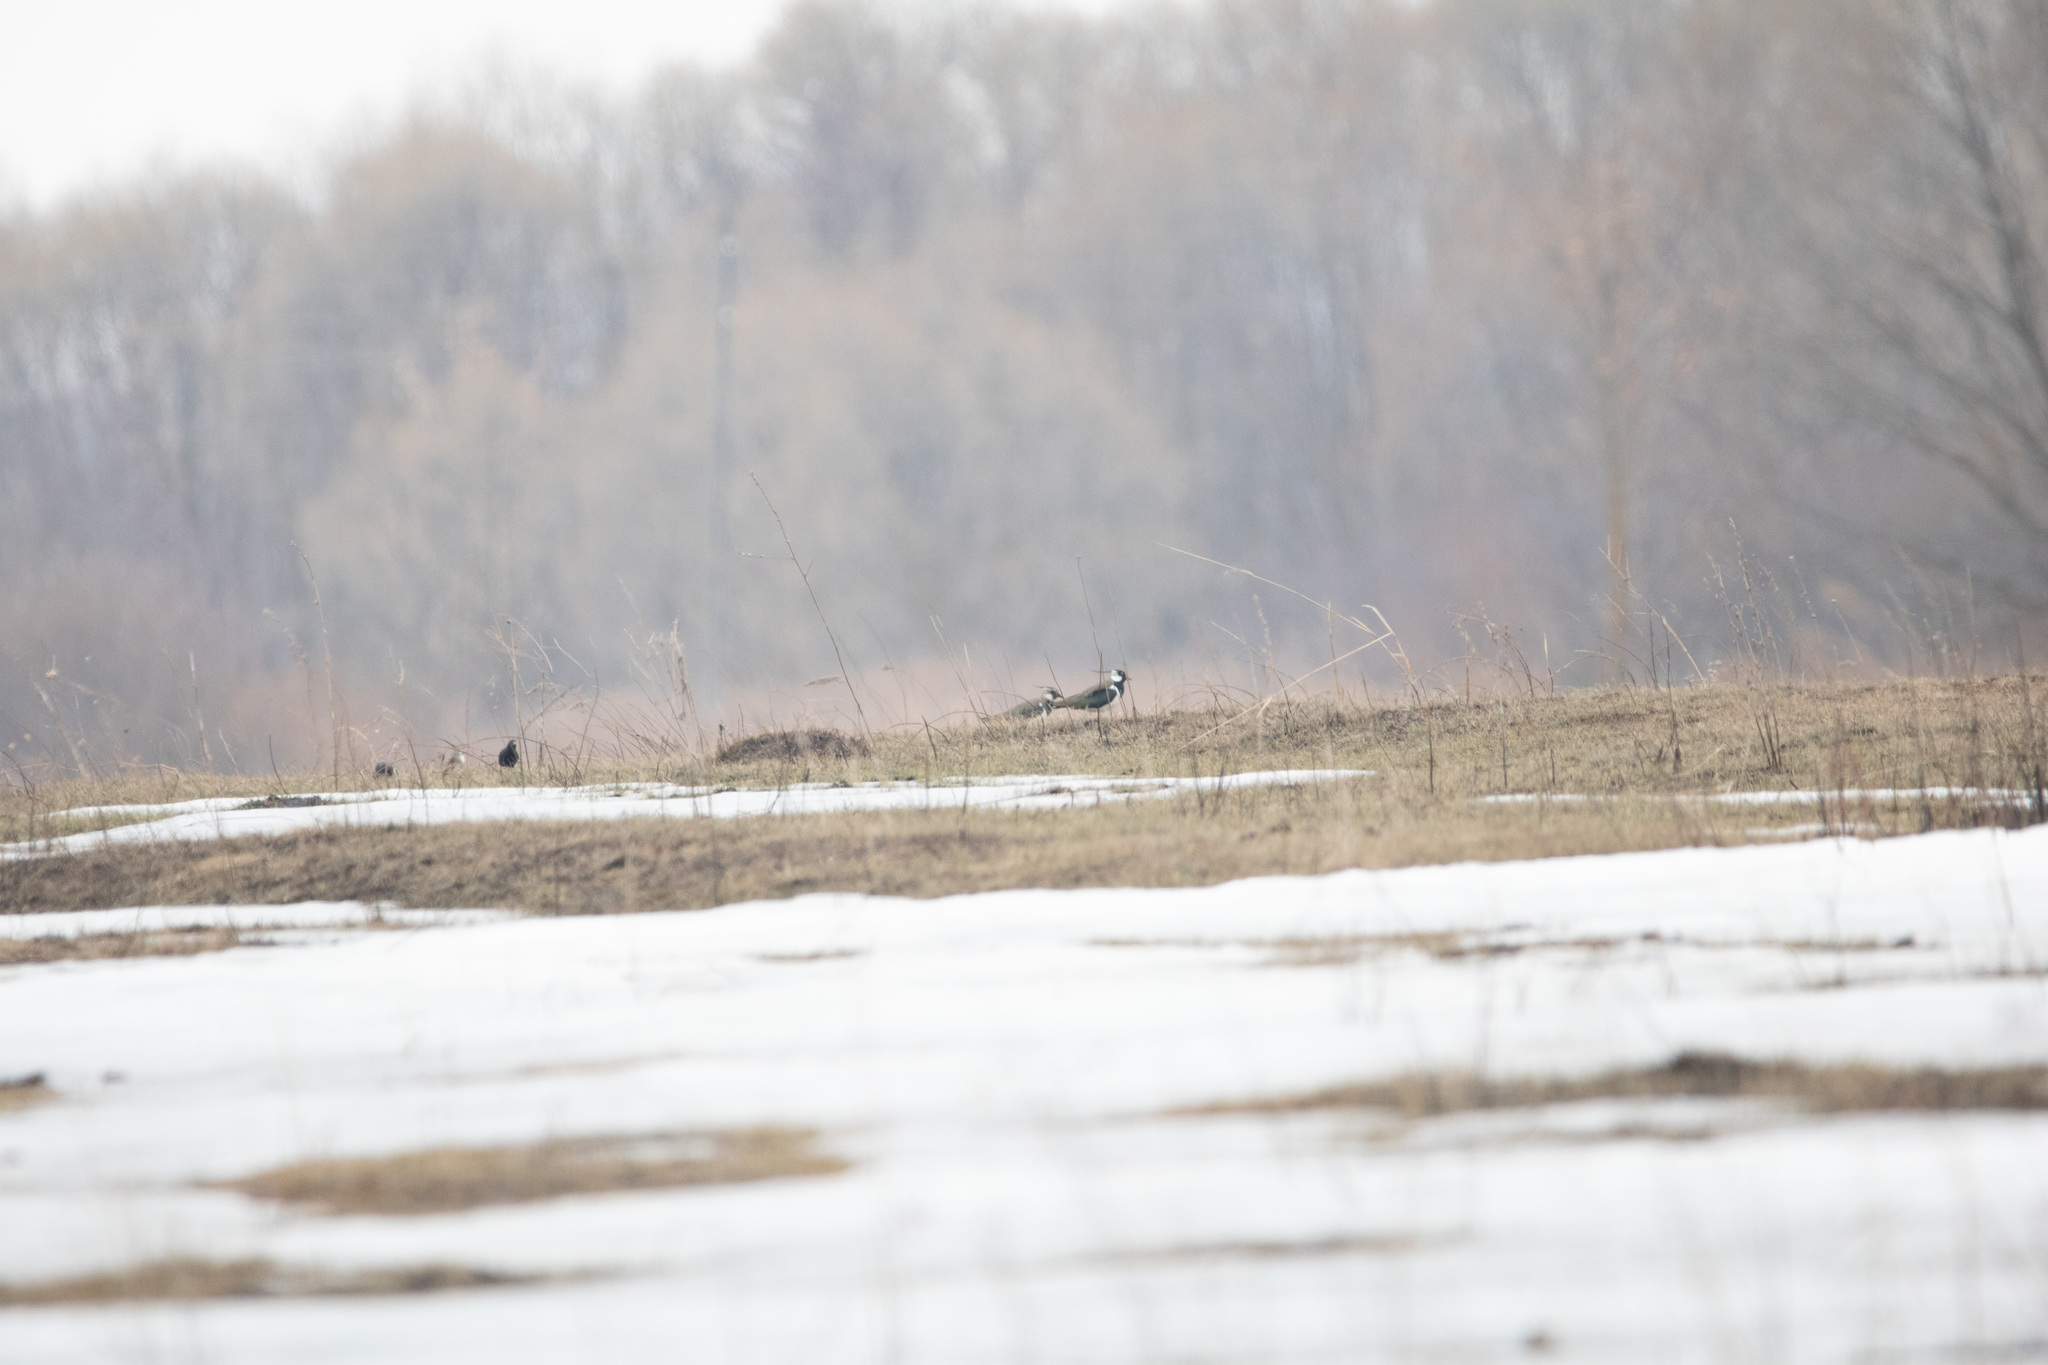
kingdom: Animalia
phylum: Chordata
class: Aves
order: Charadriiformes
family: Charadriidae
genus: Vanellus
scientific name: Vanellus vanellus
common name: Northern lapwing
